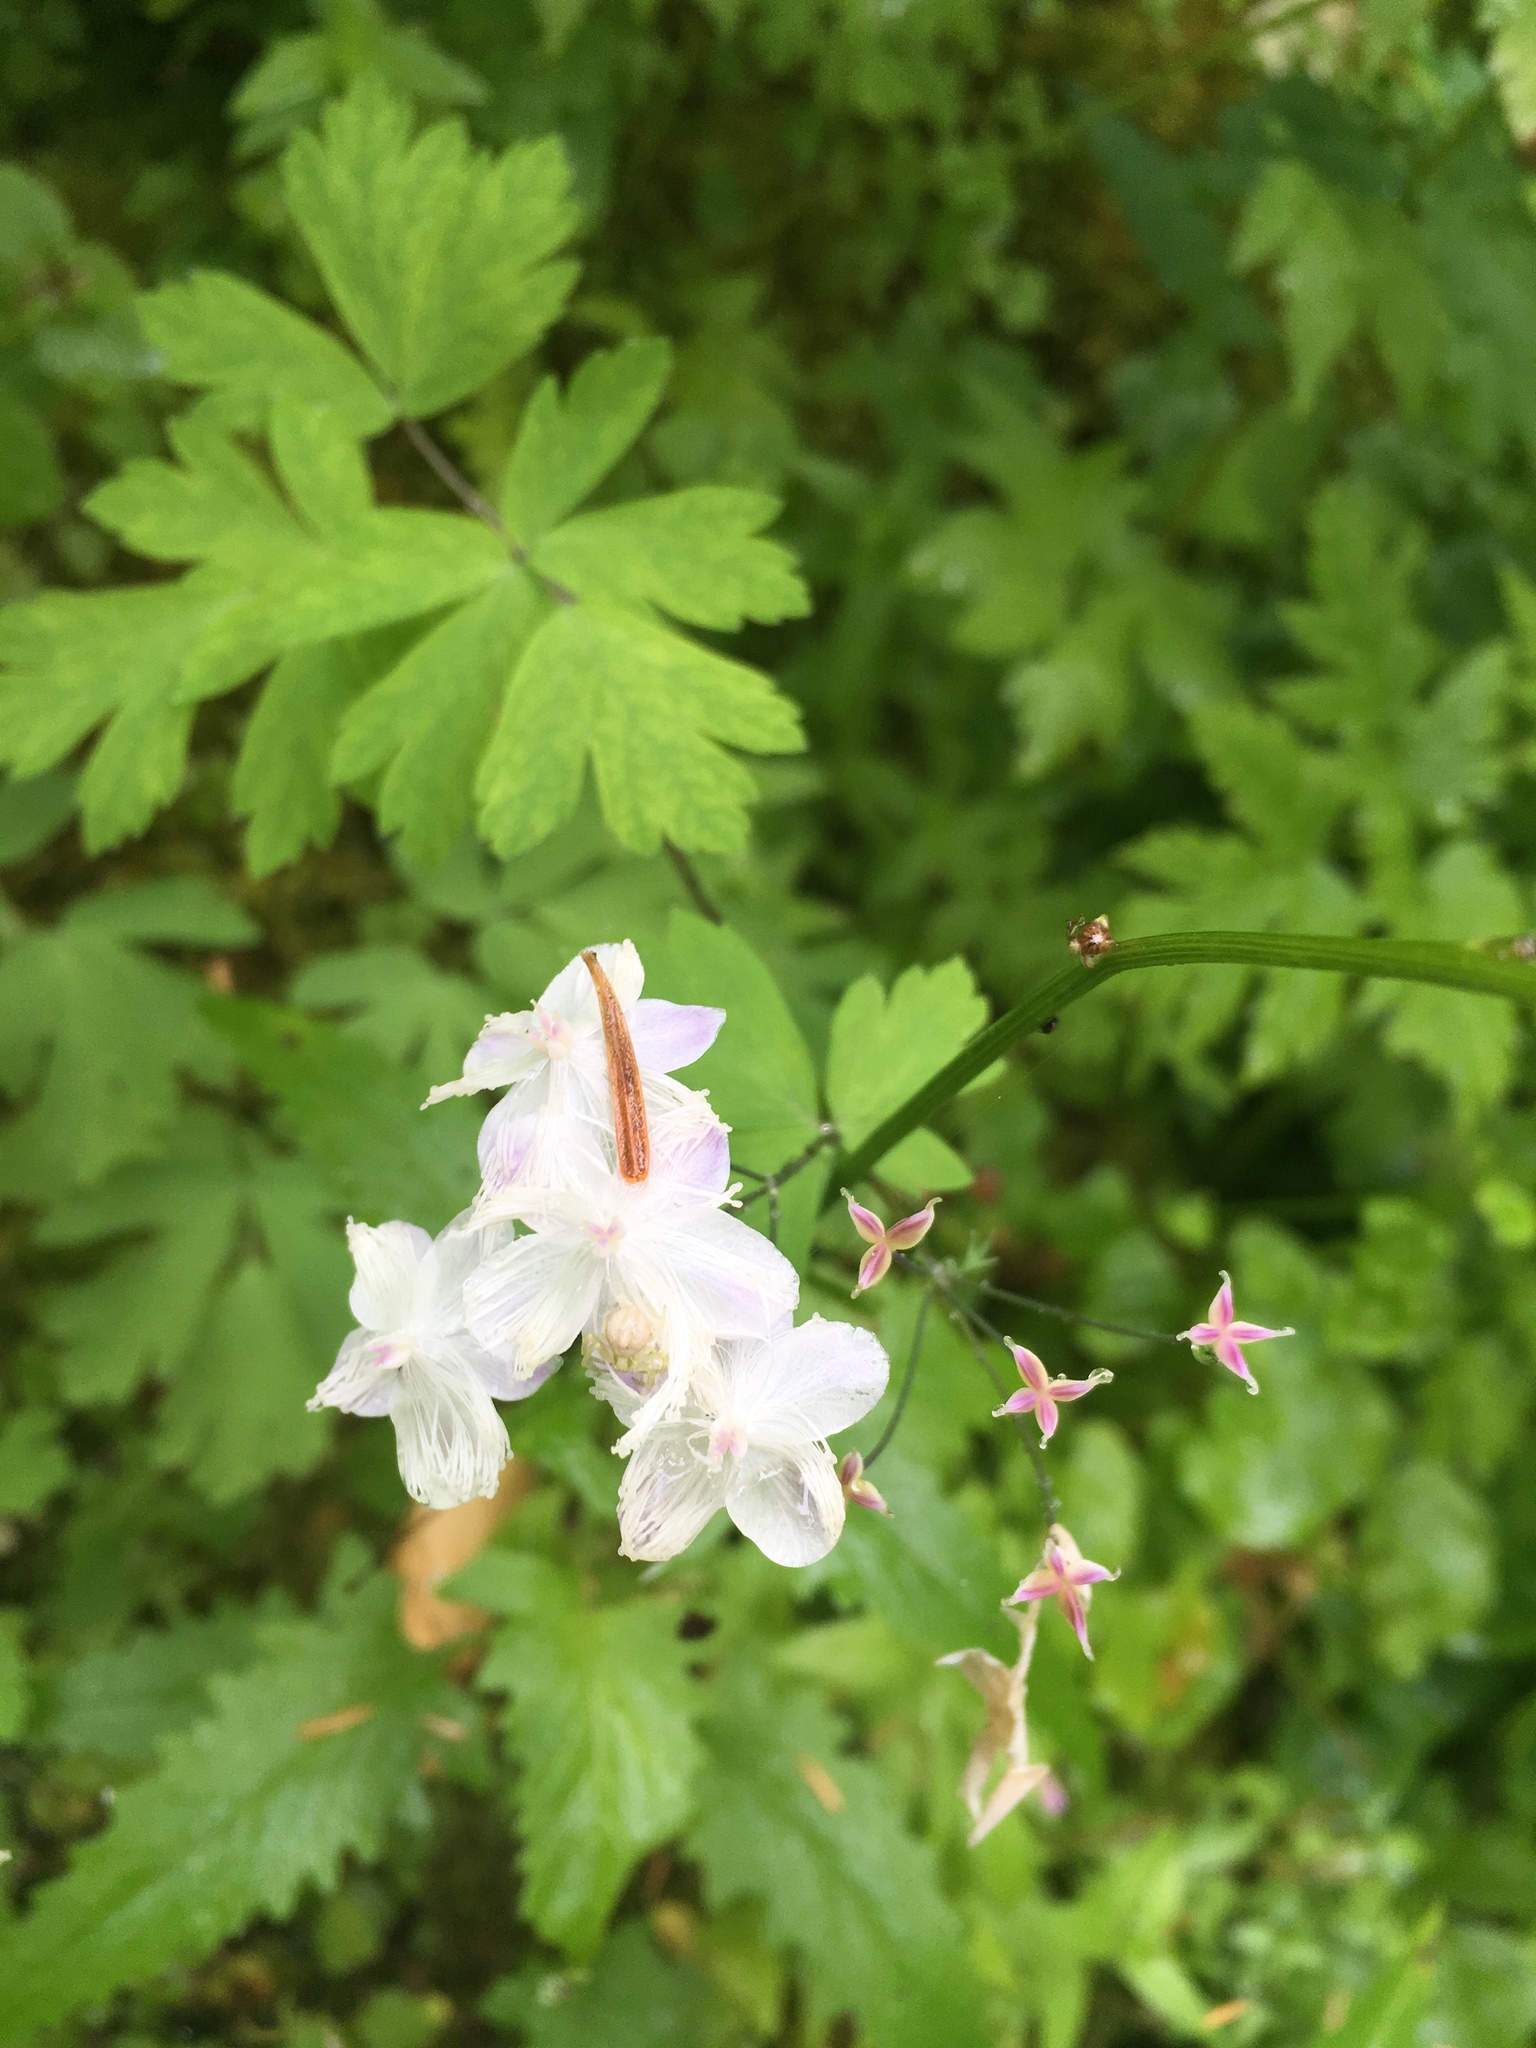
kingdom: Plantae
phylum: Tracheophyta
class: Magnoliopsida
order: Ranunculales
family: Ranunculaceae
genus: Enemion
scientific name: Enemion hallii
